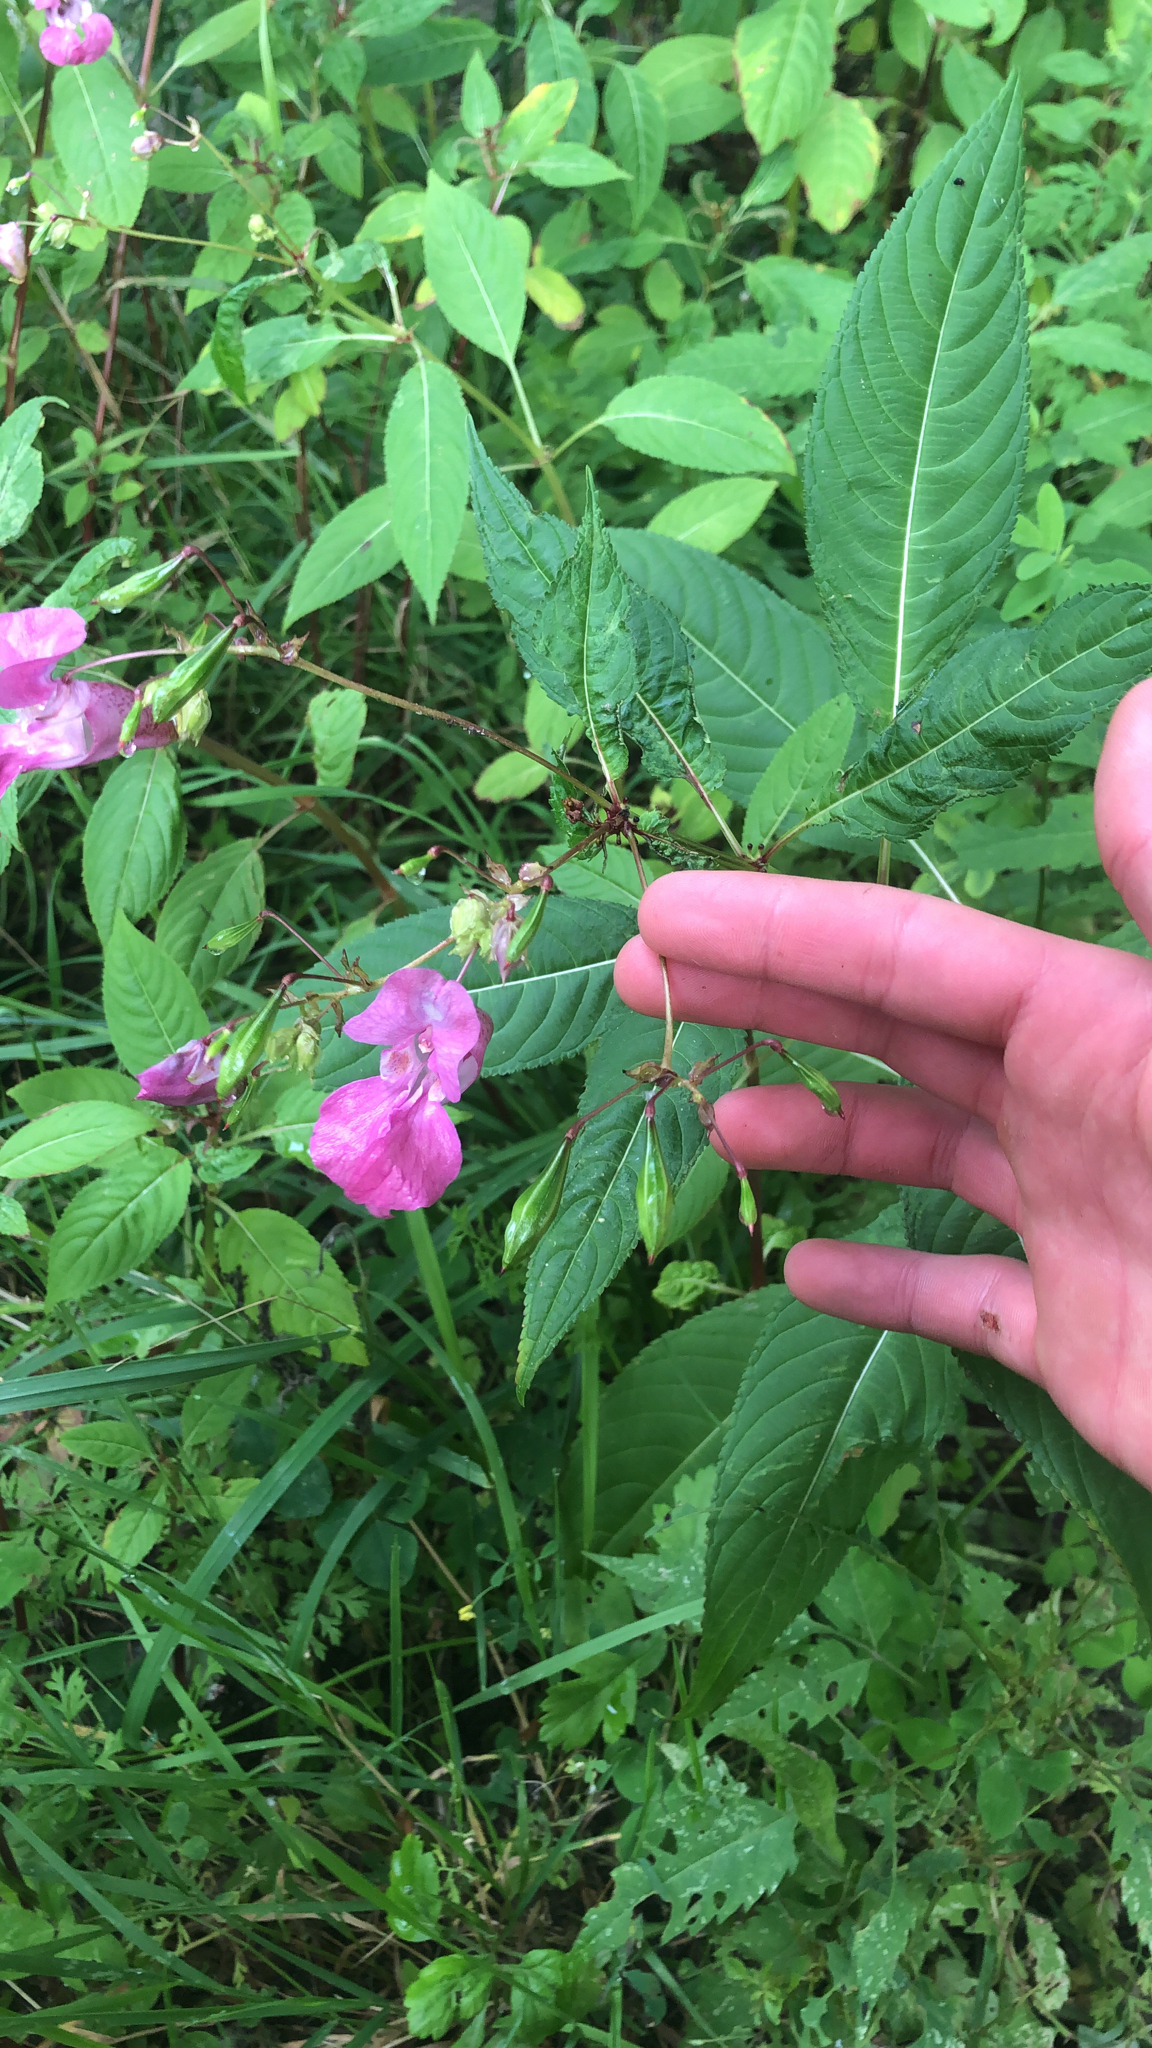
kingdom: Plantae
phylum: Tracheophyta
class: Magnoliopsida
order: Ericales
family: Balsaminaceae
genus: Impatiens
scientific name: Impatiens glandulifera
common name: Himalayan balsam
